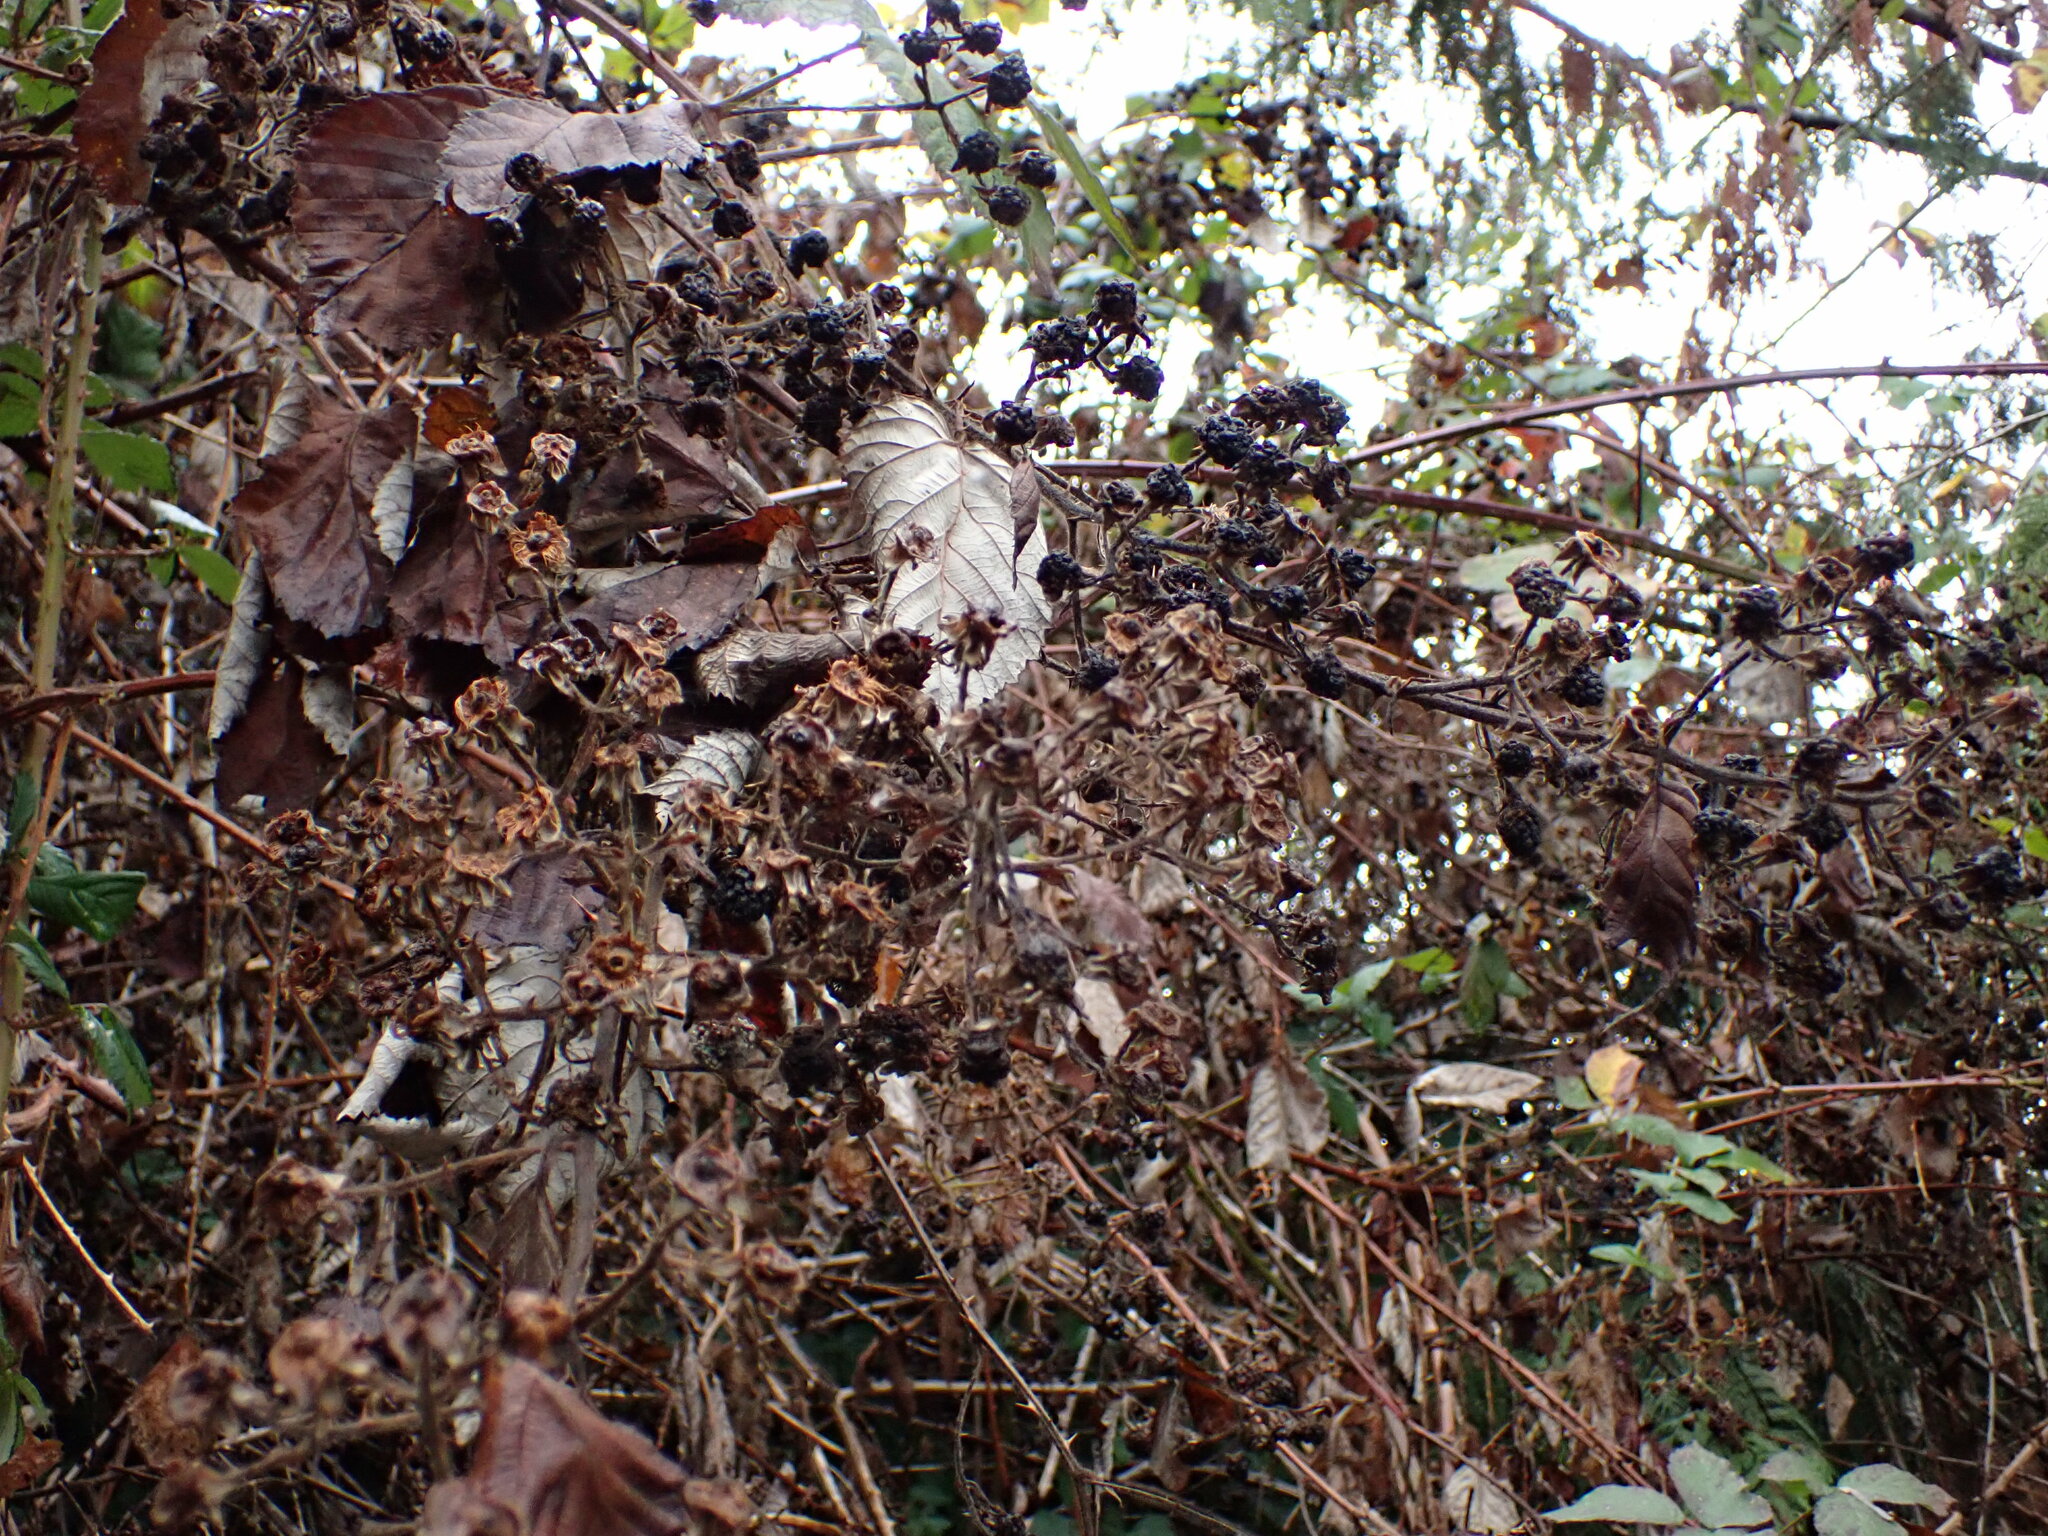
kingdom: Plantae
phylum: Tracheophyta
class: Magnoliopsida
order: Rosales
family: Rosaceae
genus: Rubus
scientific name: Rubus bifrons
